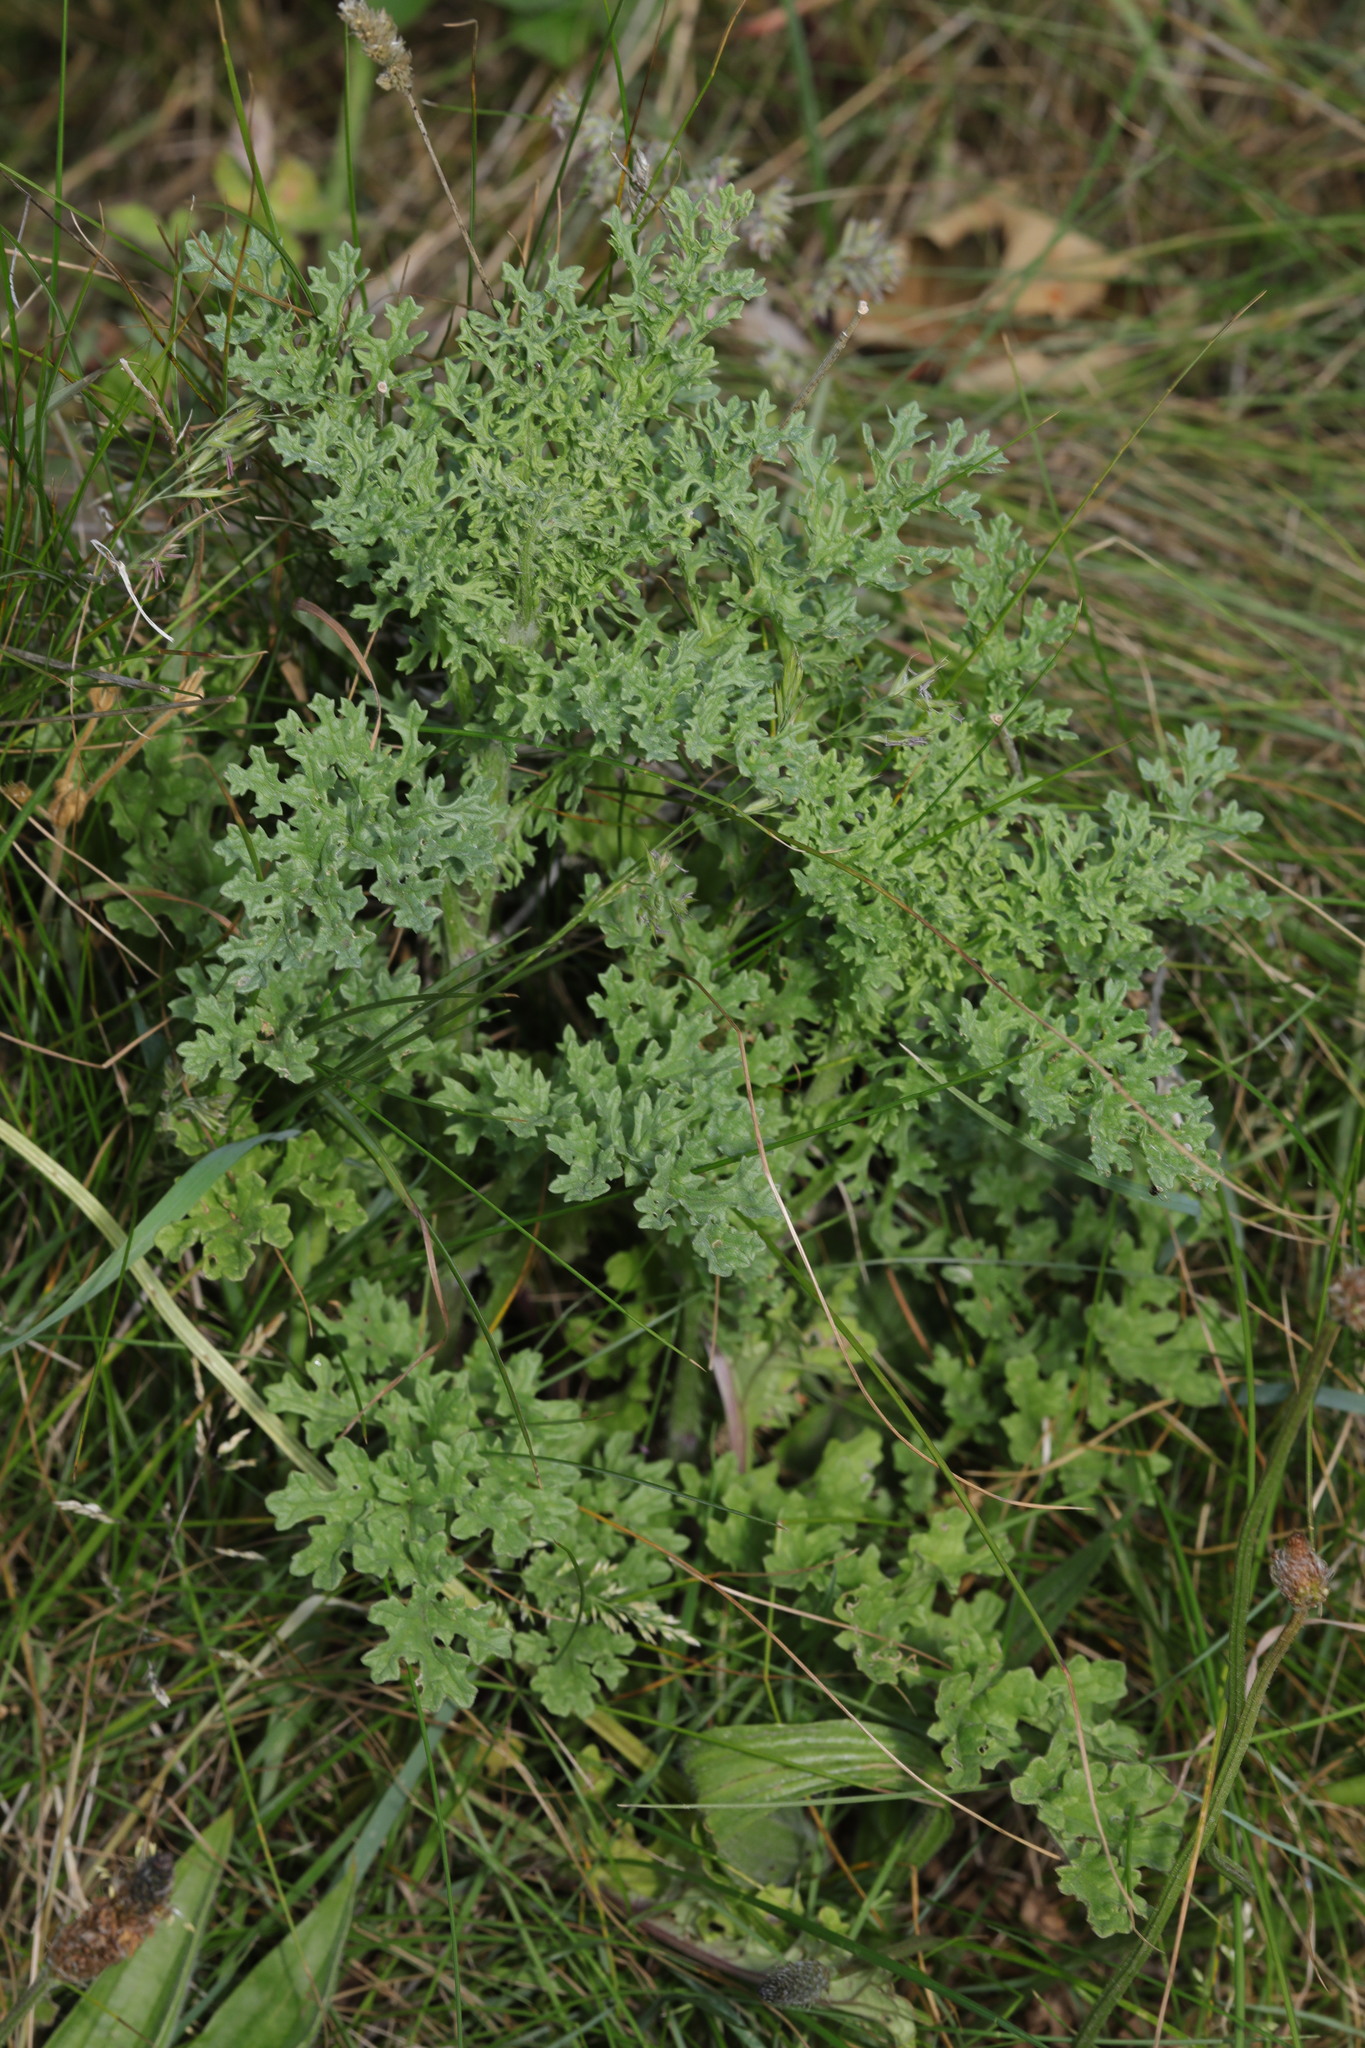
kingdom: Plantae
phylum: Tracheophyta
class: Magnoliopsida
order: Asterales
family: Asteraceae
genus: Jacobaea
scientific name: Jacobaea vulgaris
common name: Stinking willie
